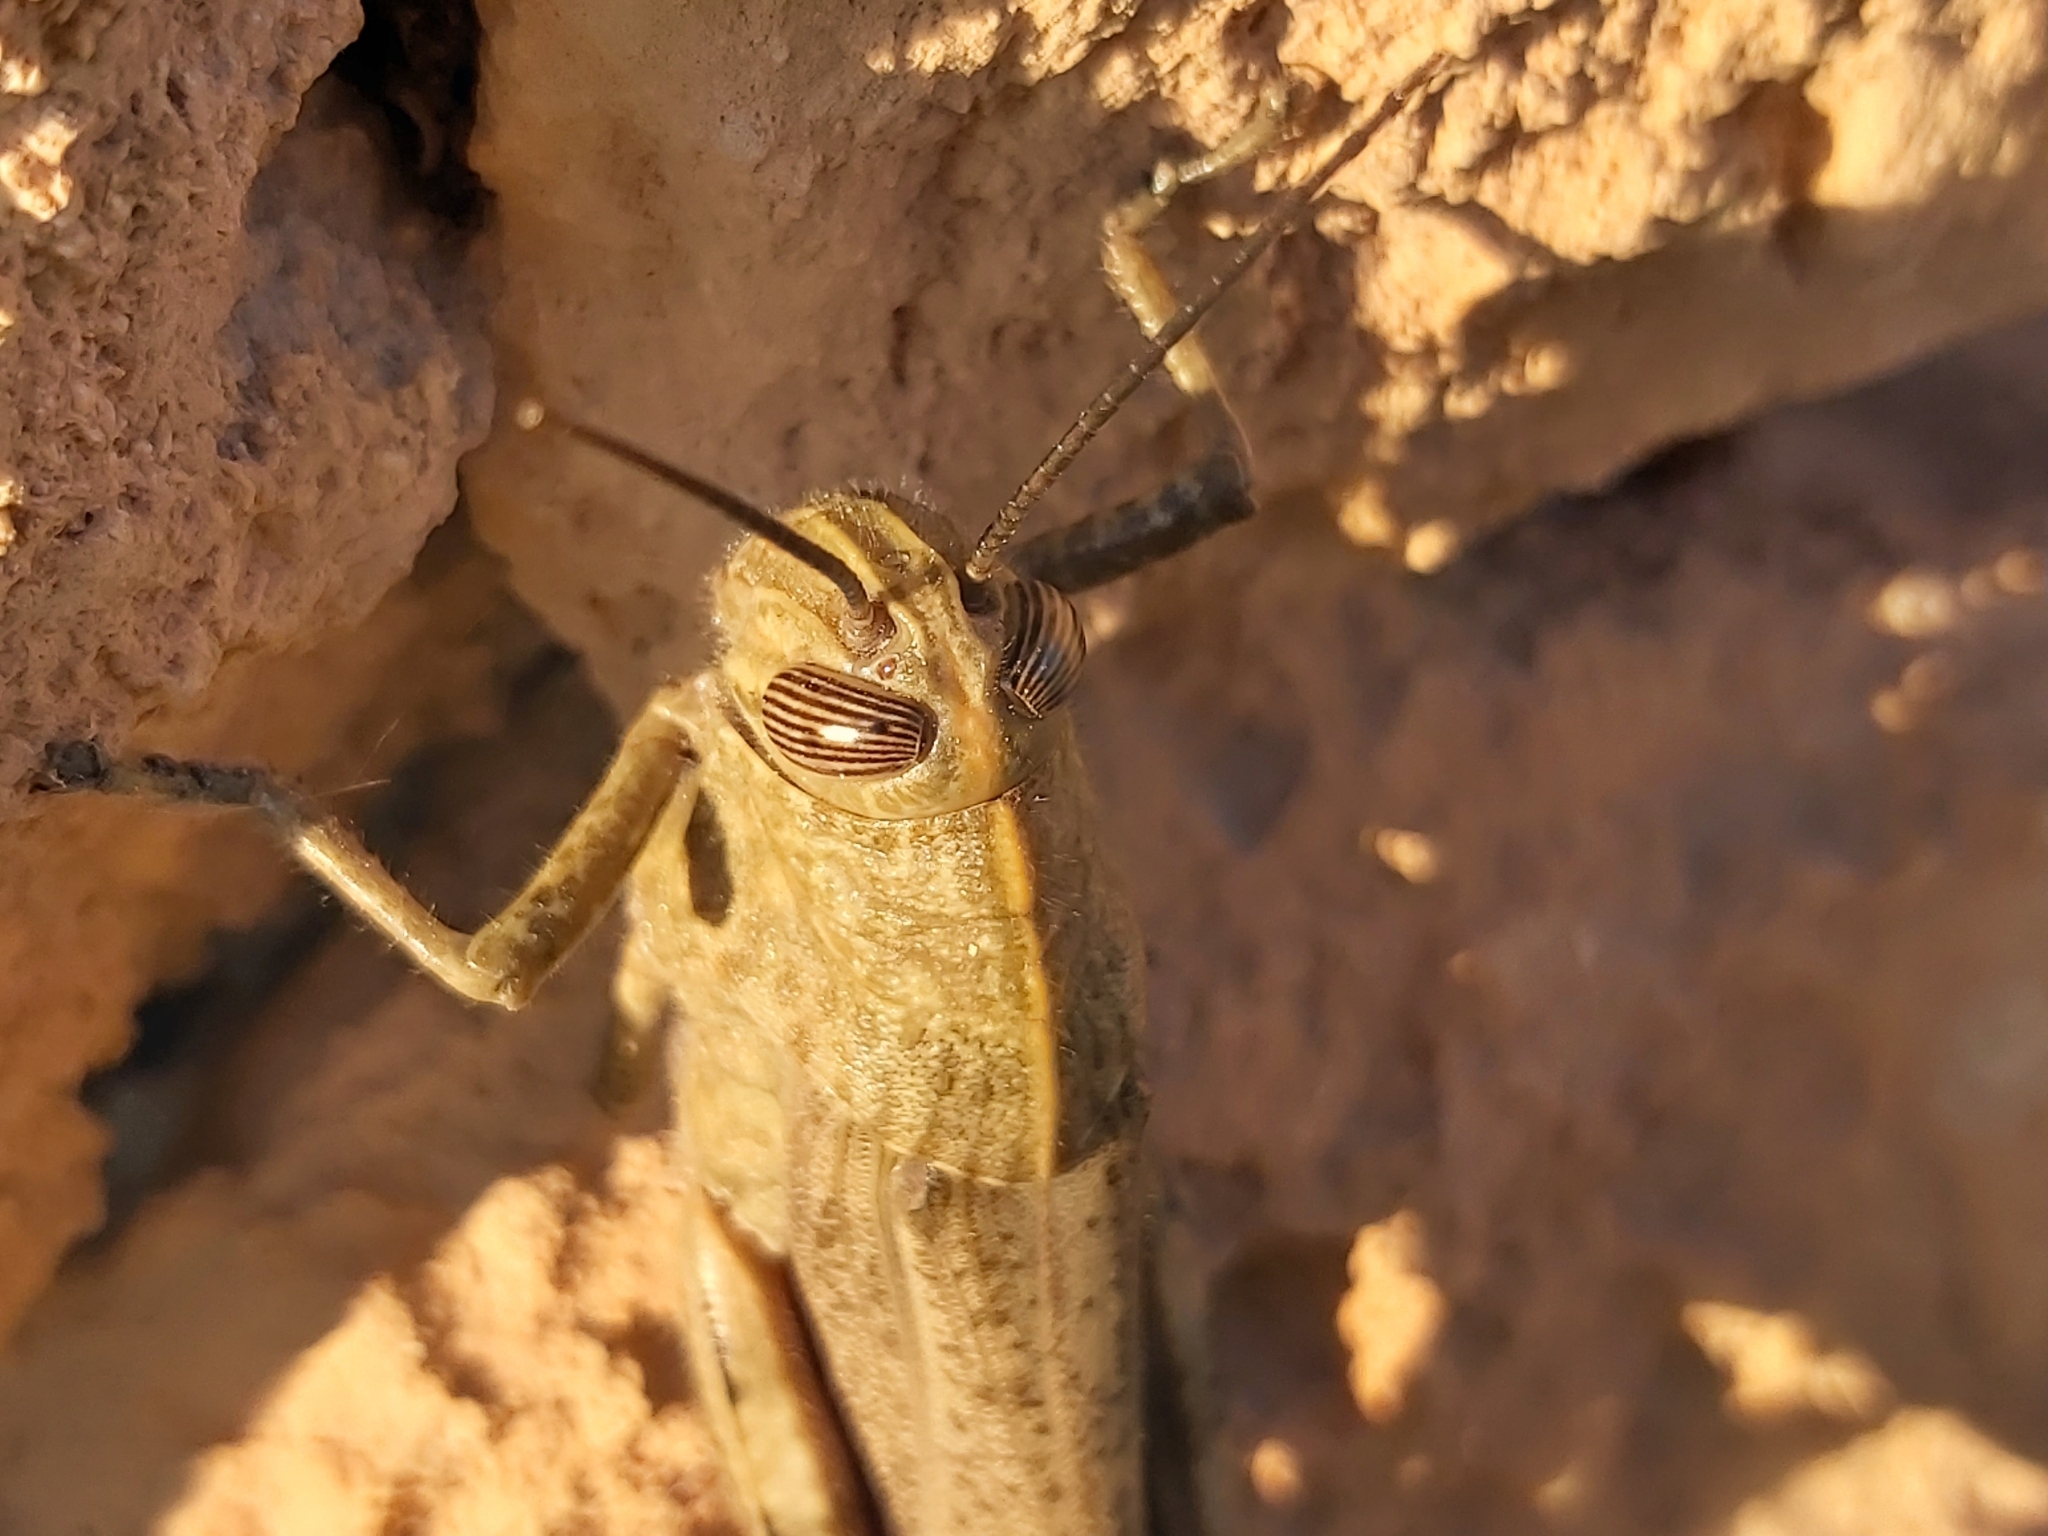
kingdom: Animalia
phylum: Arthropoda
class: Insecta
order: Orthoptera
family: Acrididae
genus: Anacridium
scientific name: Anacridium aegyptium
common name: Egyptian grasshopper
